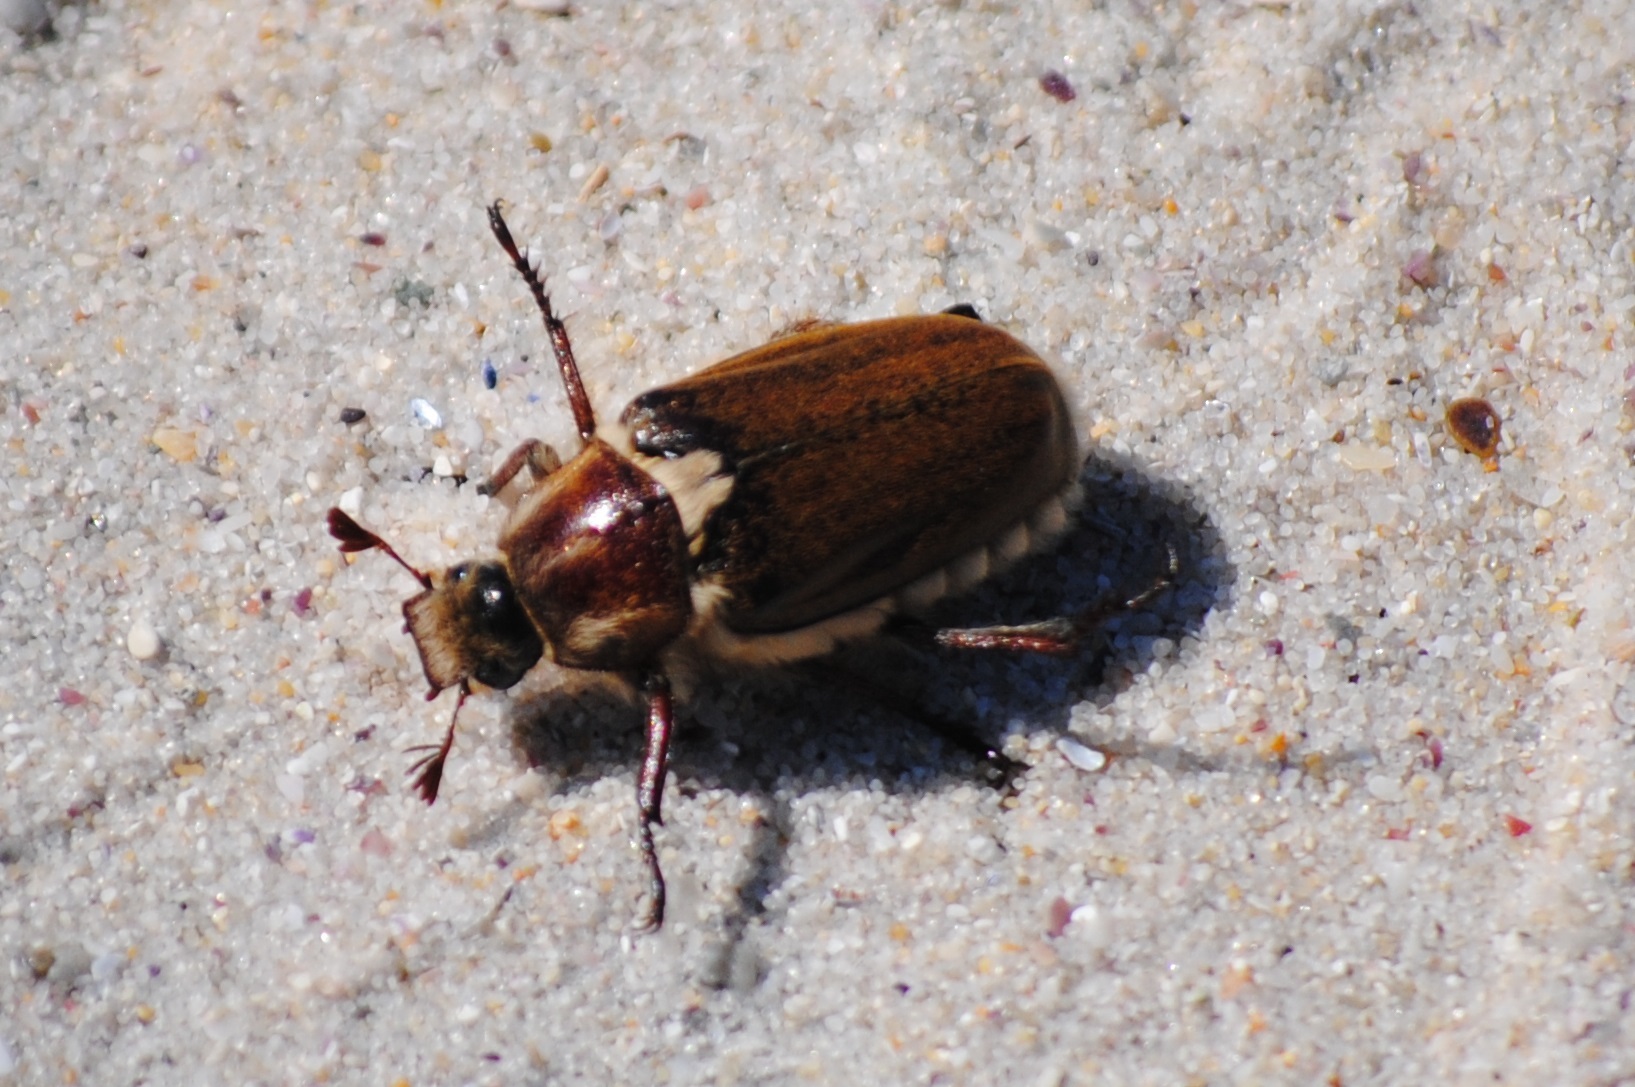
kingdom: Animalia
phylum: Arthropoda
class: Insecta
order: Coleoptera
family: Scarabaeidae
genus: Anoxia
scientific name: Anoxia villosa
